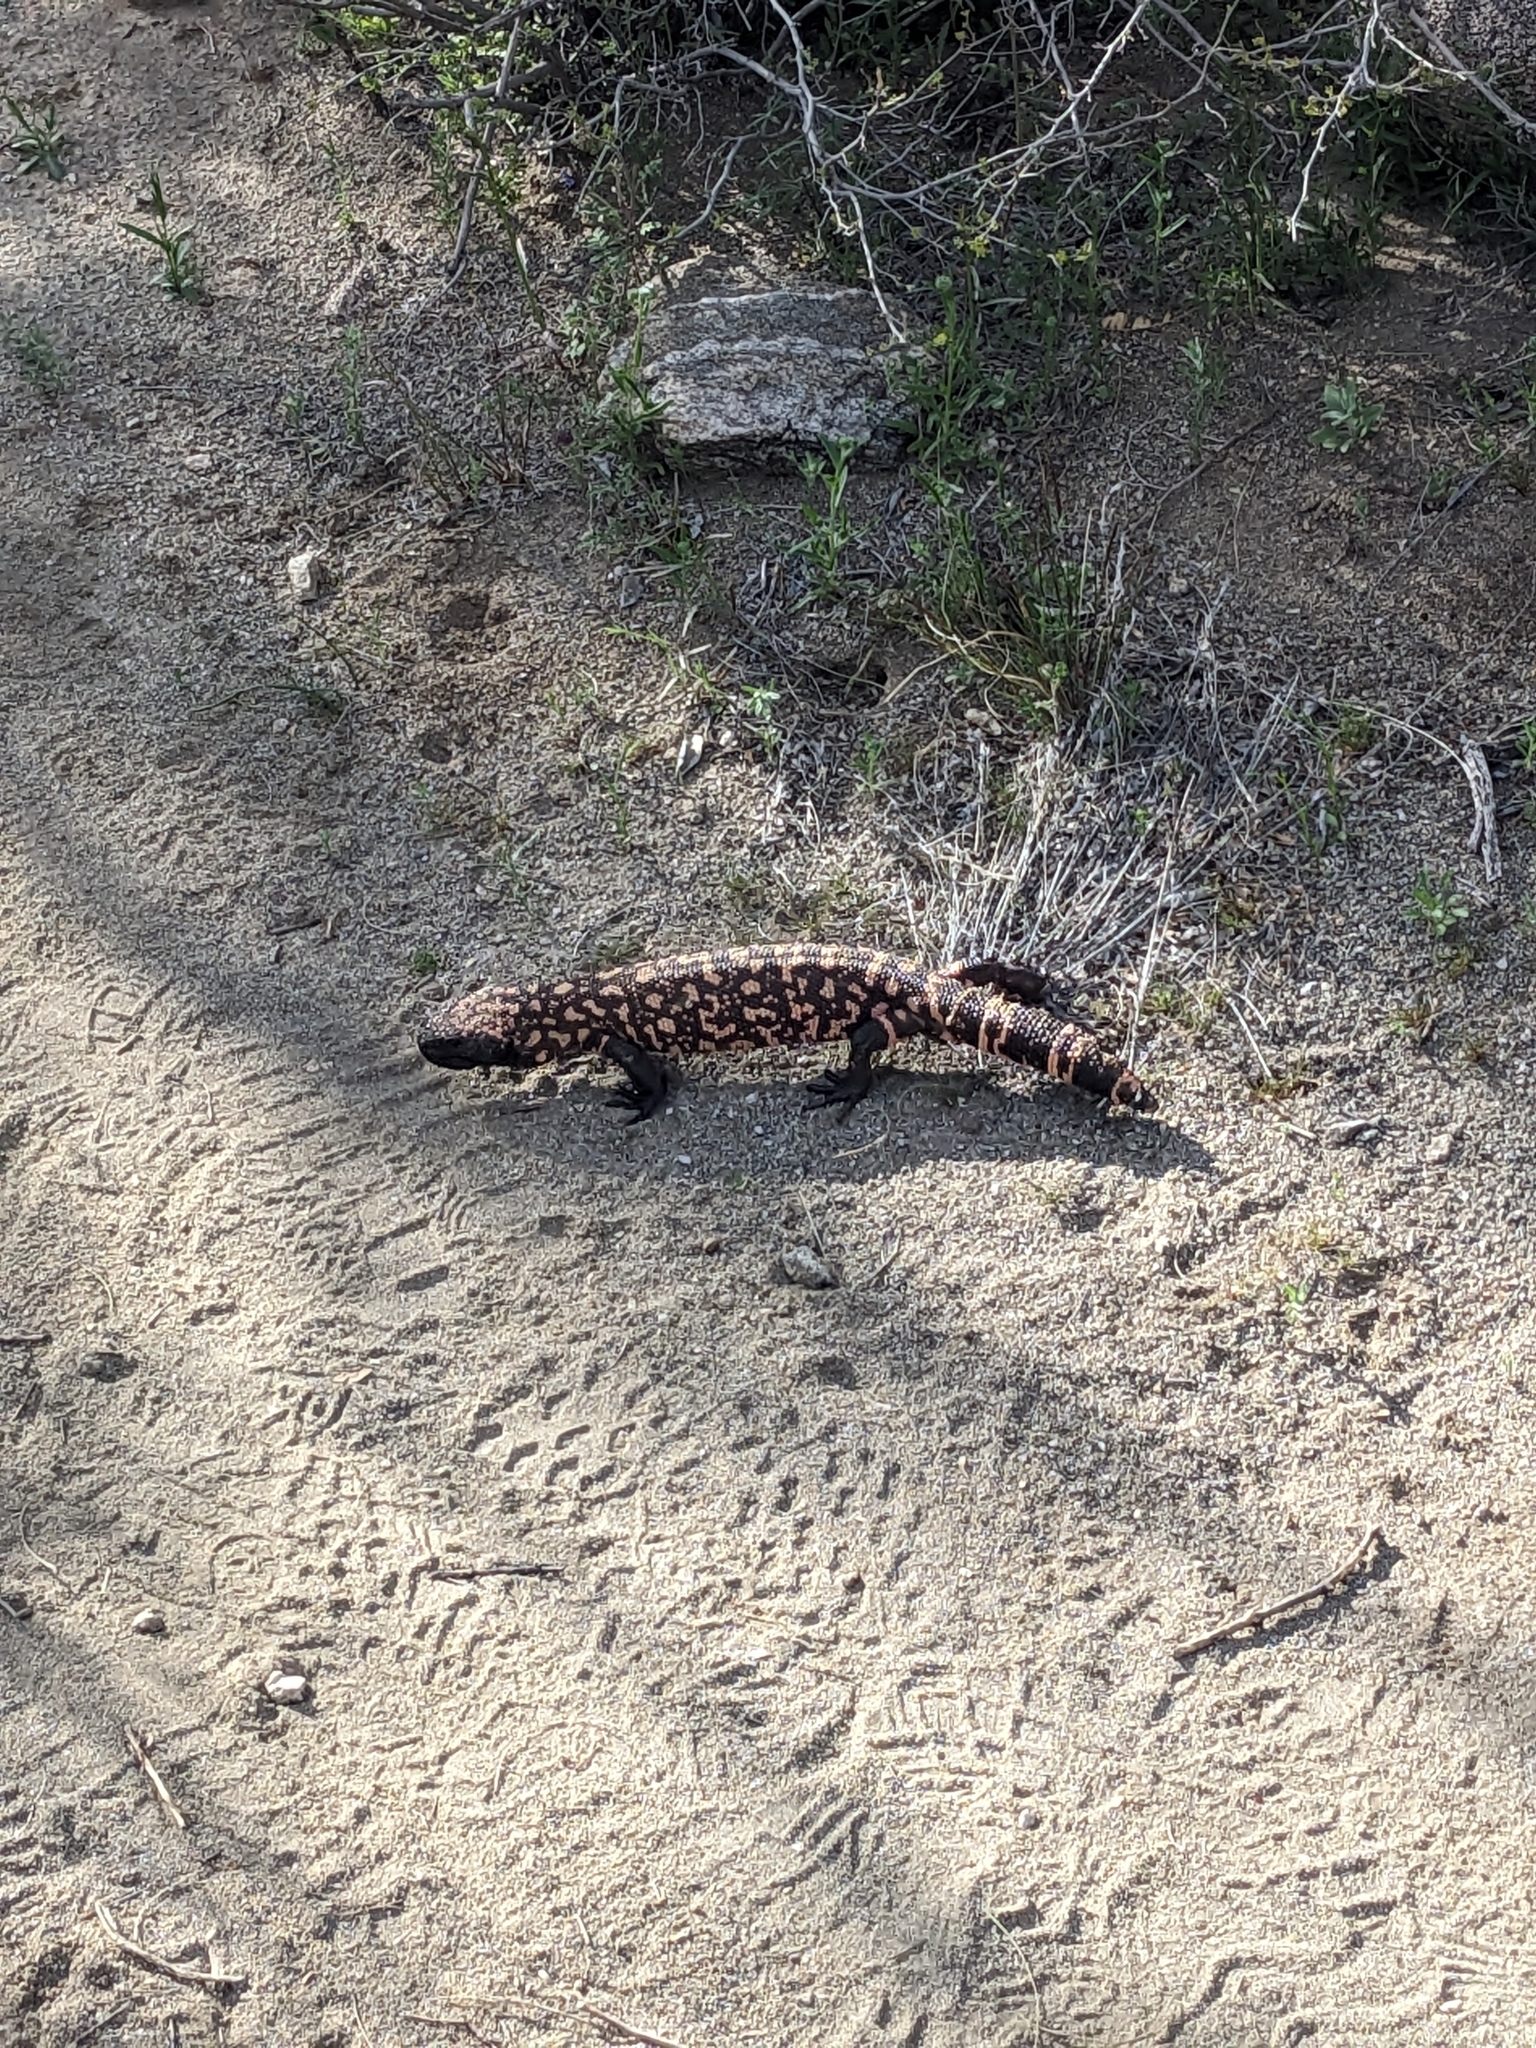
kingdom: Animalia
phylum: Chordata
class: Squamata
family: Helodermatidae
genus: Heloderma
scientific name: Heloderma suspectum
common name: Gila monster
